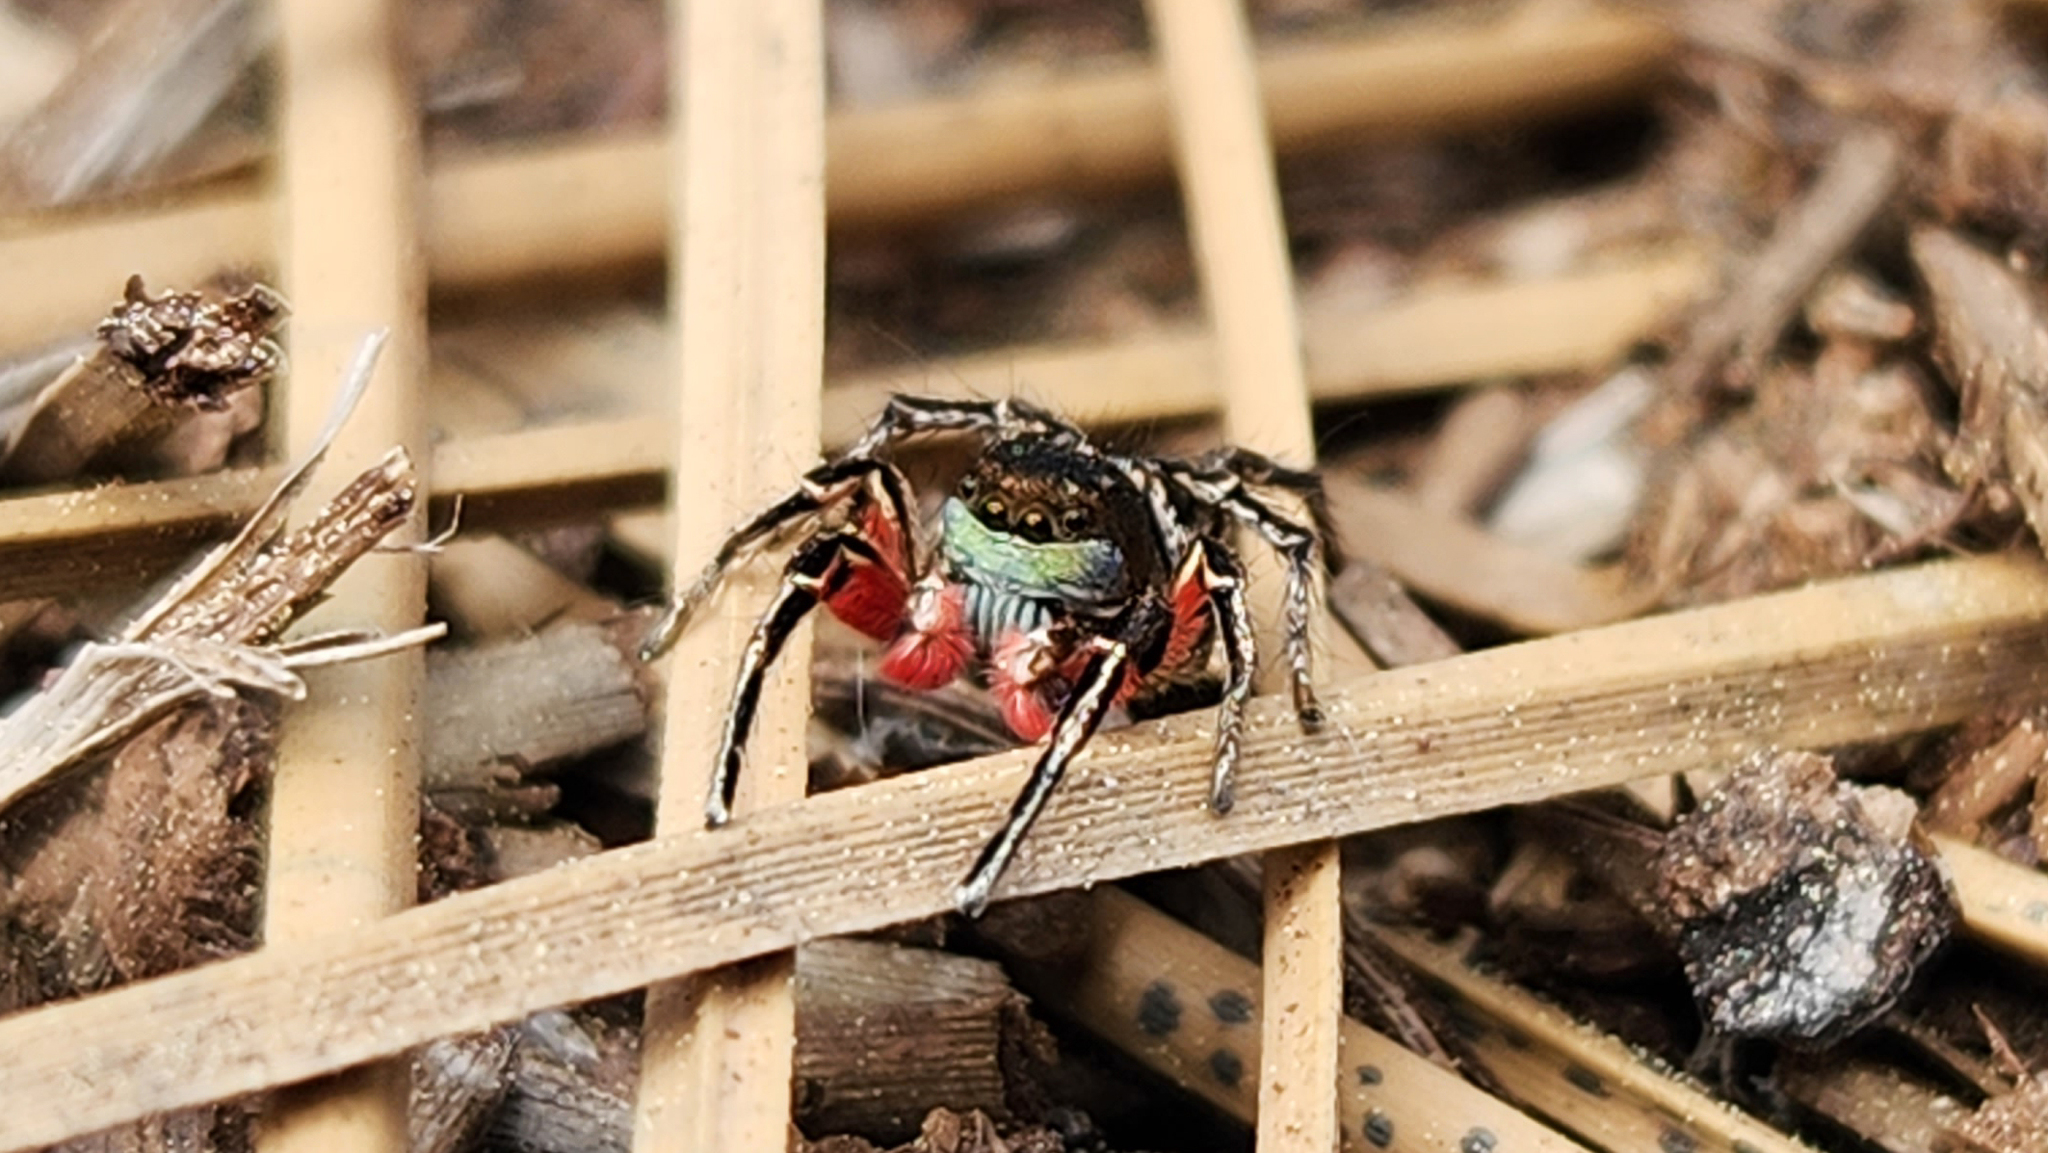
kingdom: Animalia
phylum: Arthropoda
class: Arachnida
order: Araneae
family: Salticidae
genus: Habronattus
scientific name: Habronattus americanus
